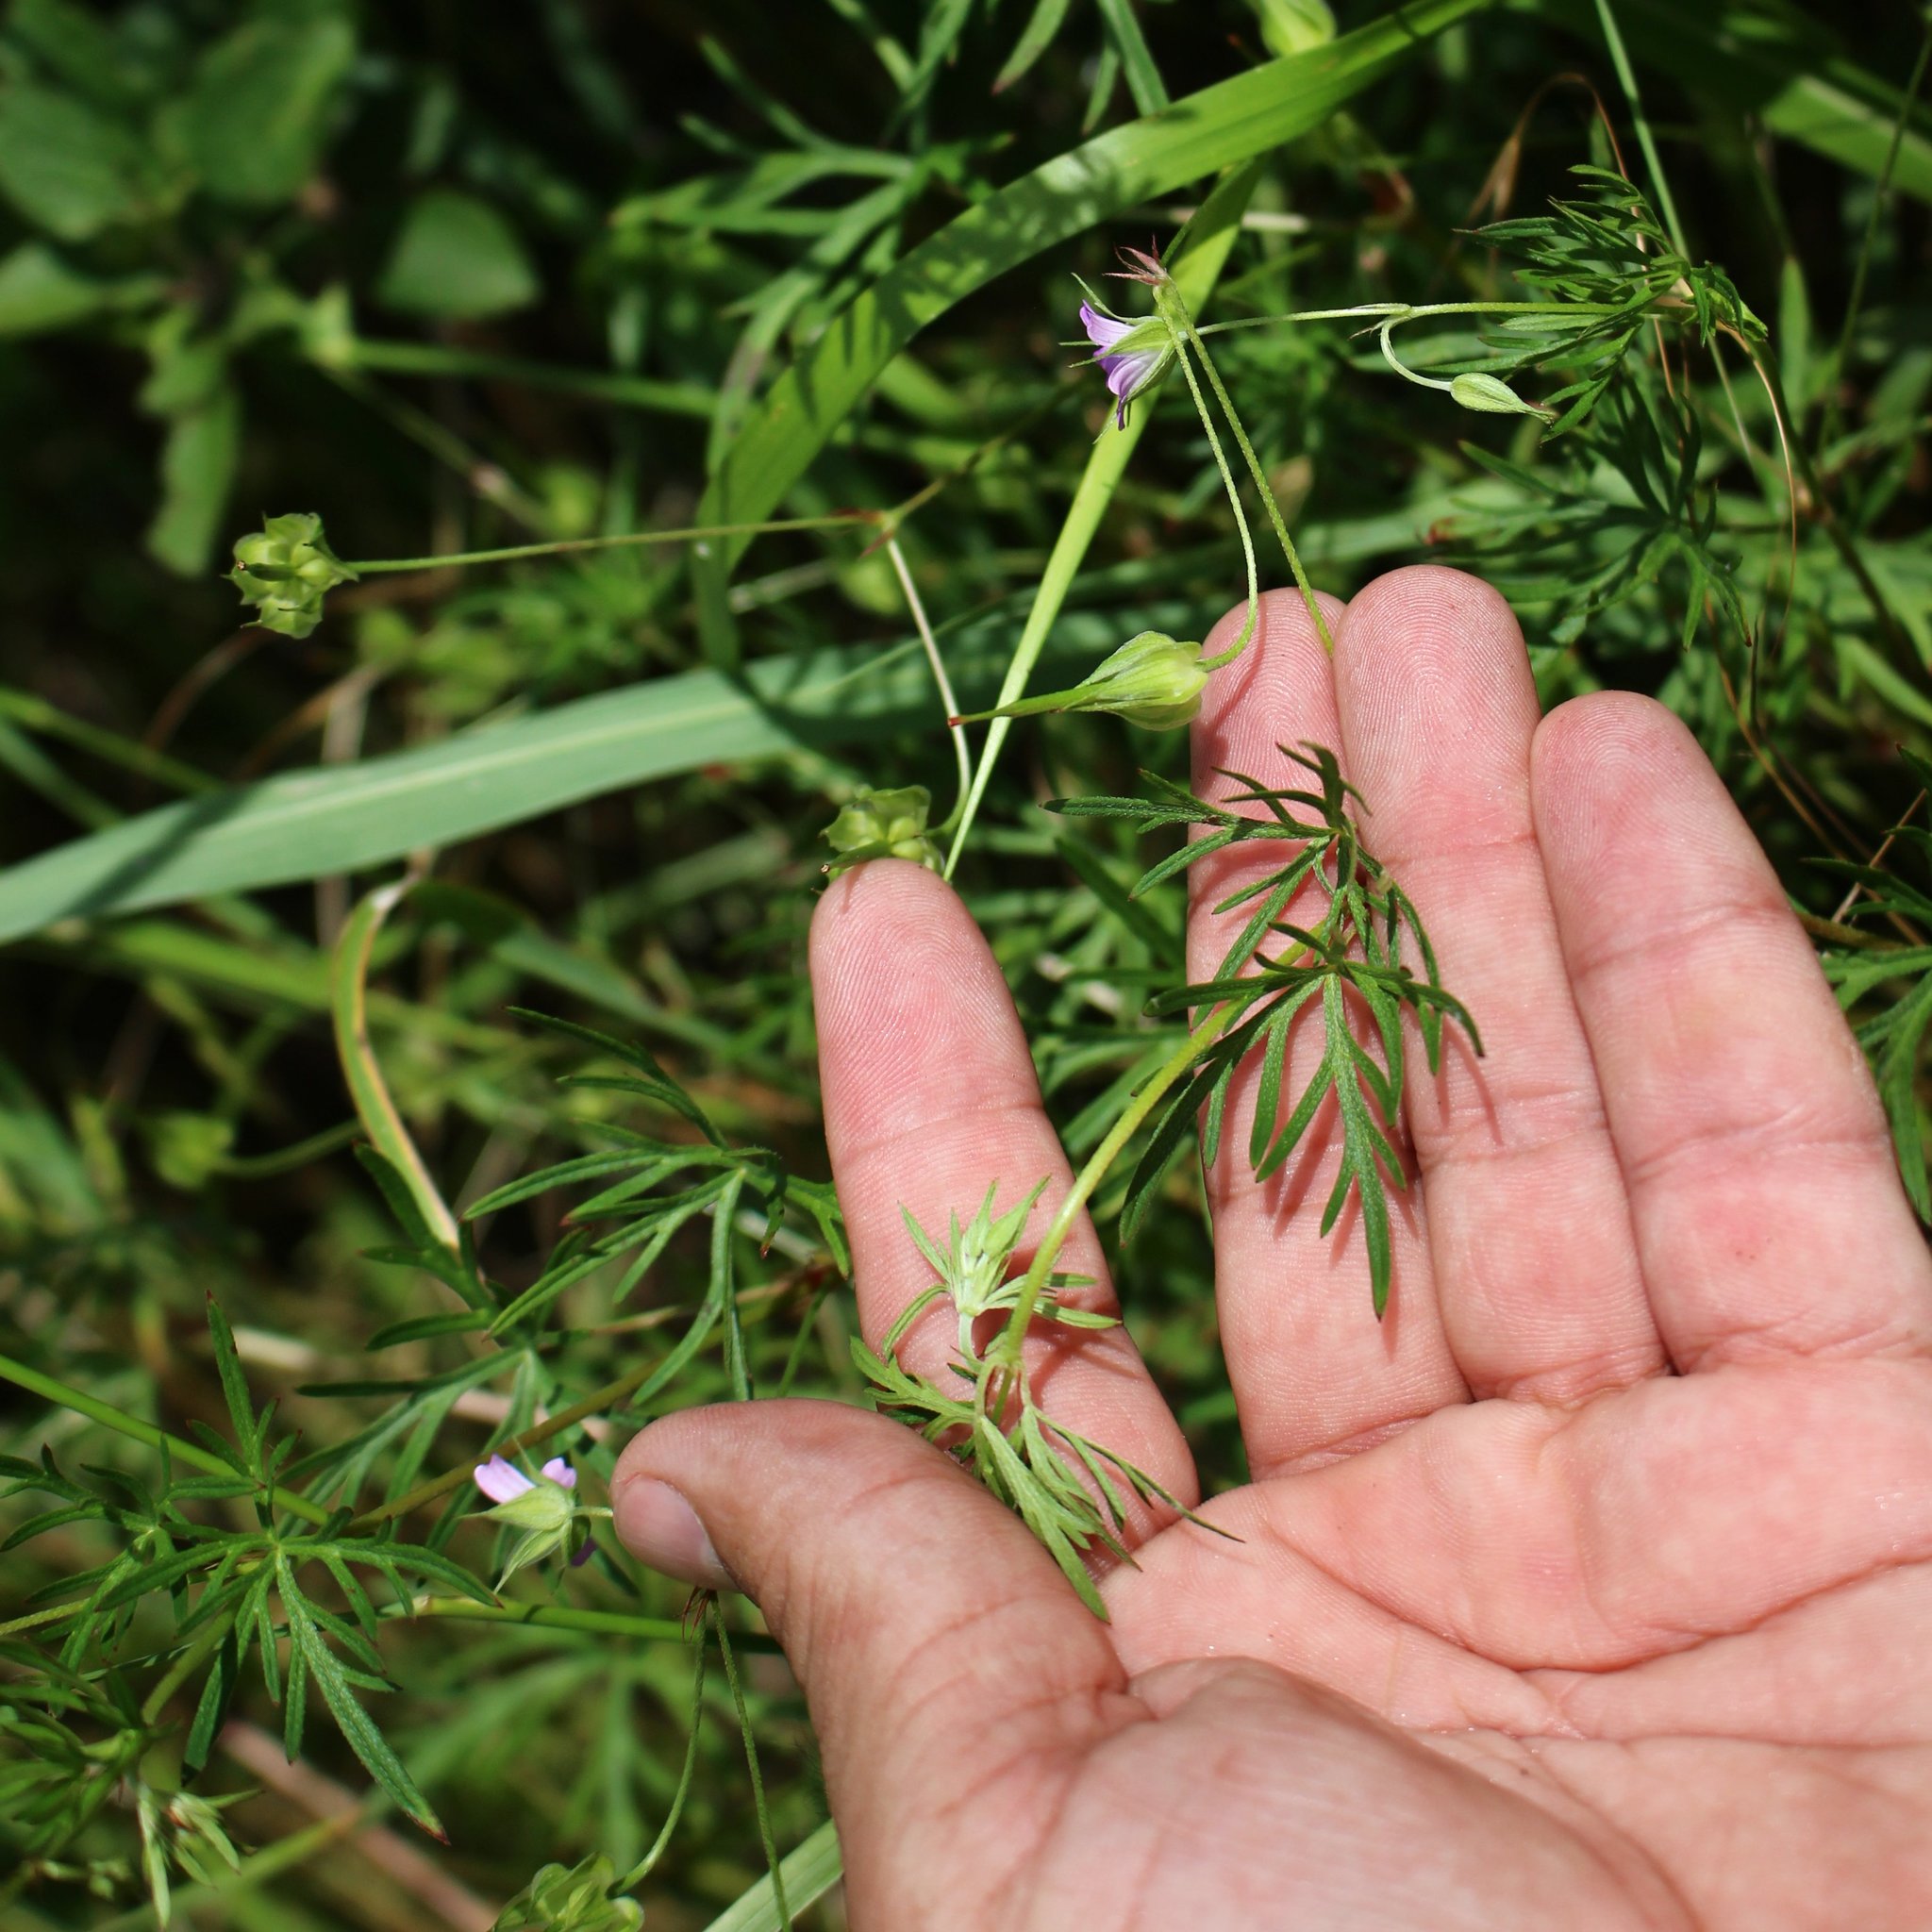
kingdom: Plantae
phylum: Tracheophyta
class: Magnoliopsida
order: Geraniales
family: Geraniaceae
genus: Geranium
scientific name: Geranium columbinum
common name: Long-stalked crane's-bill
